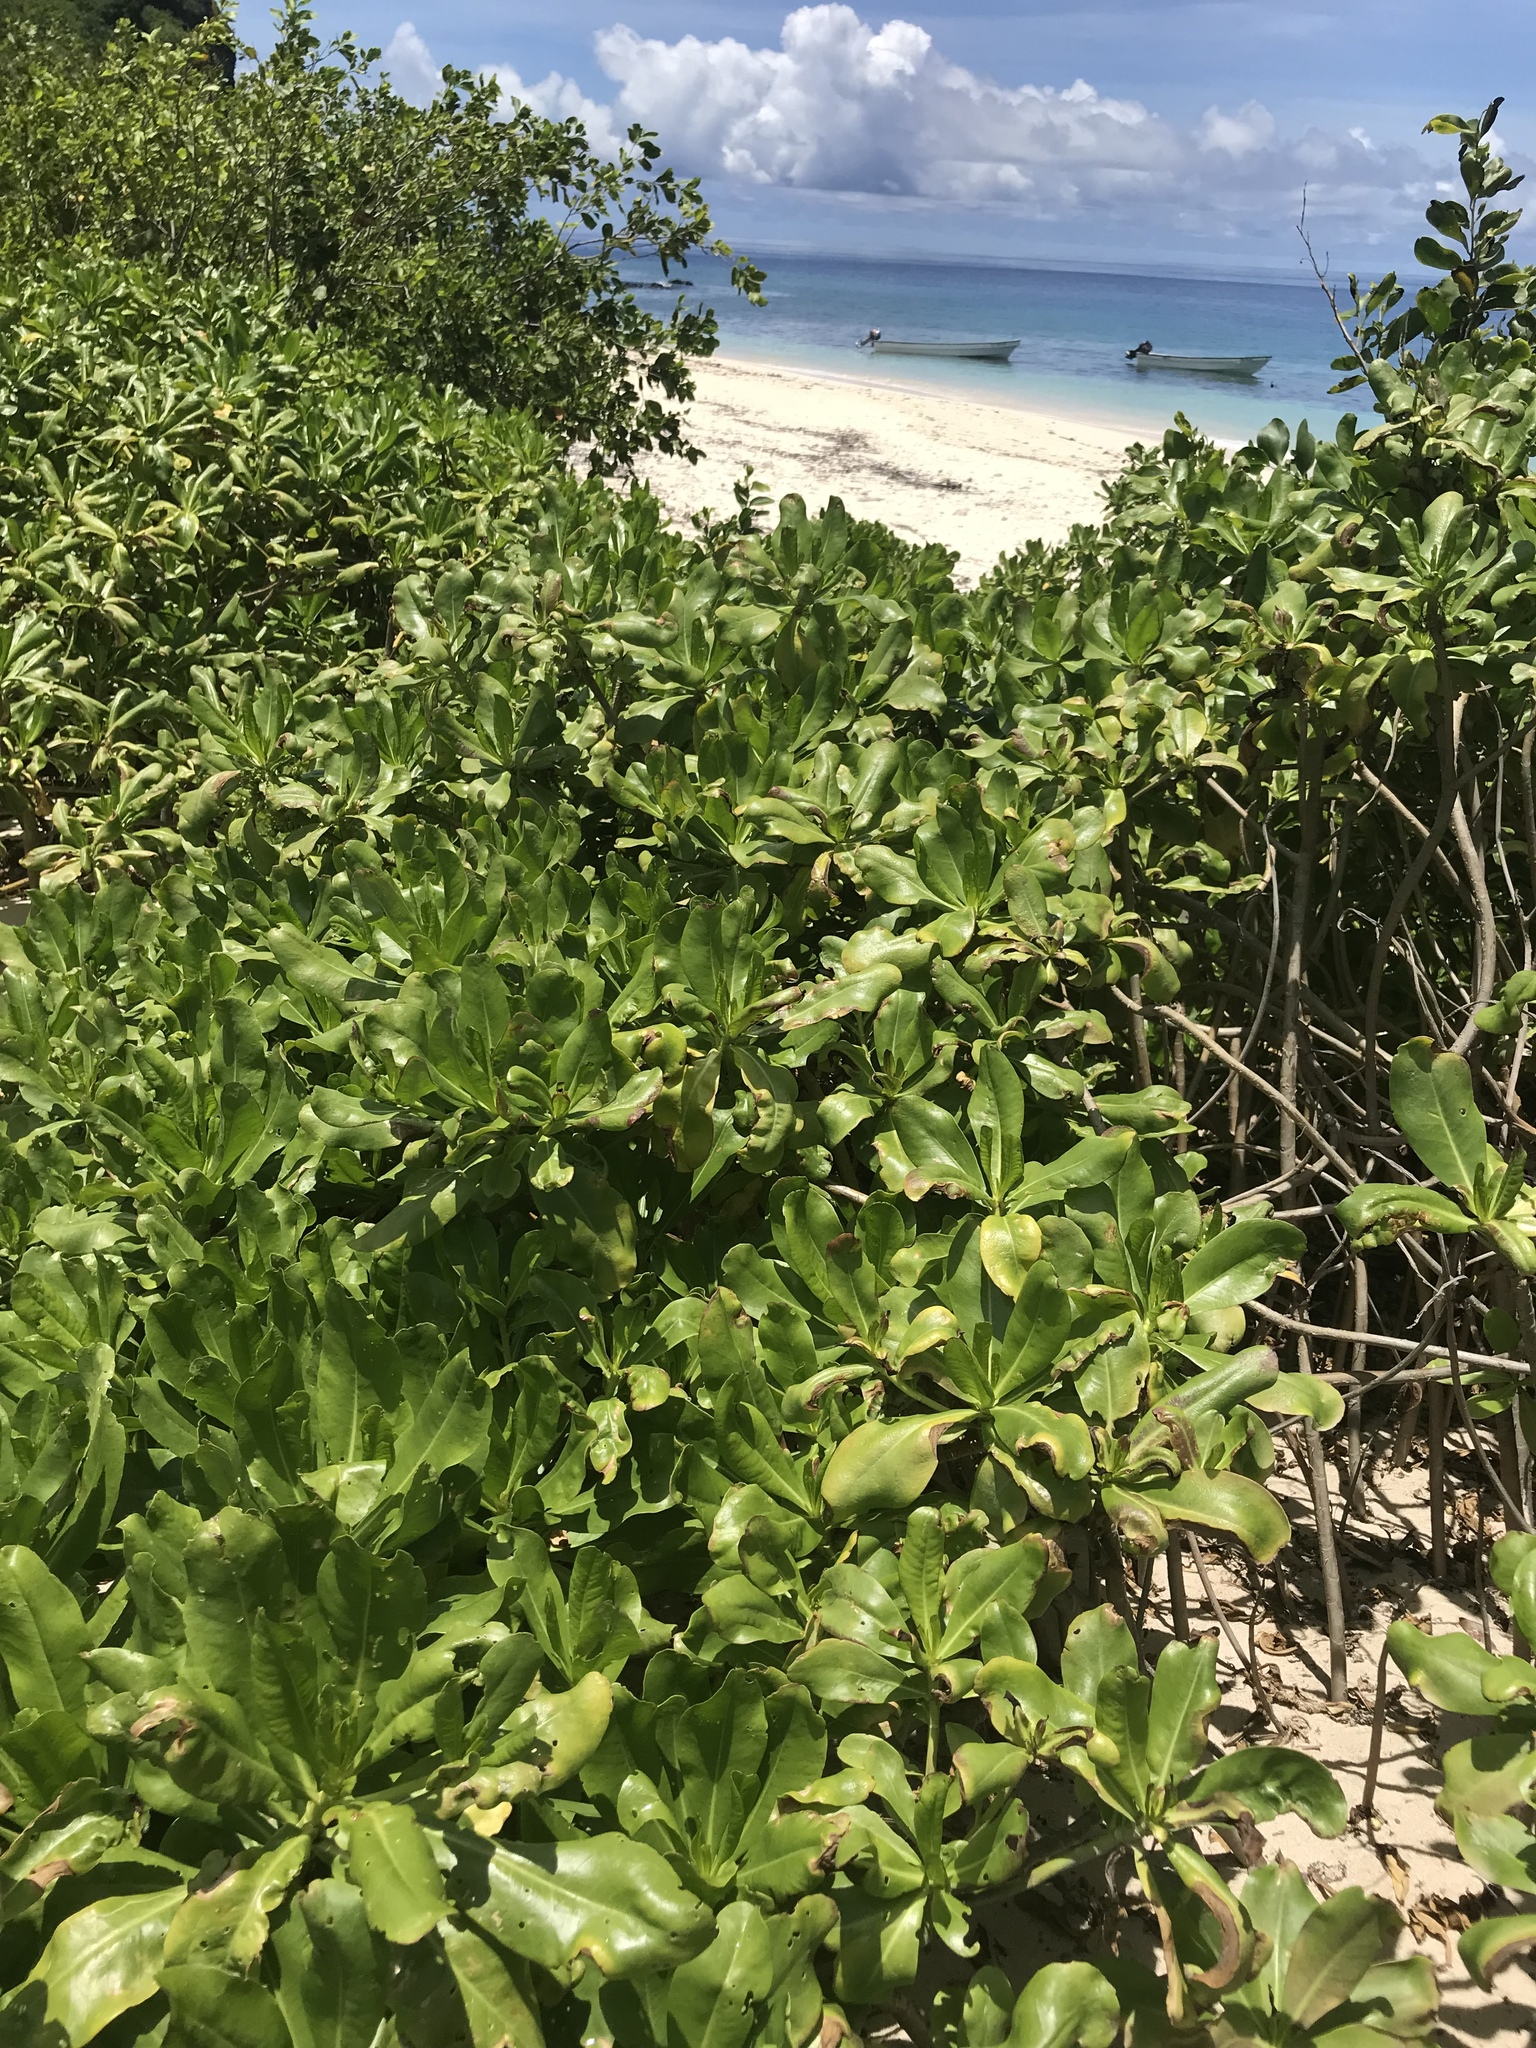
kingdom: Plantae
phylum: Tracheophyta
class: Magnoliopsida
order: Asterales
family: Goodeniaceae
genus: Scaevola
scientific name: Scaevola taccada
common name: Sea lettucetree
